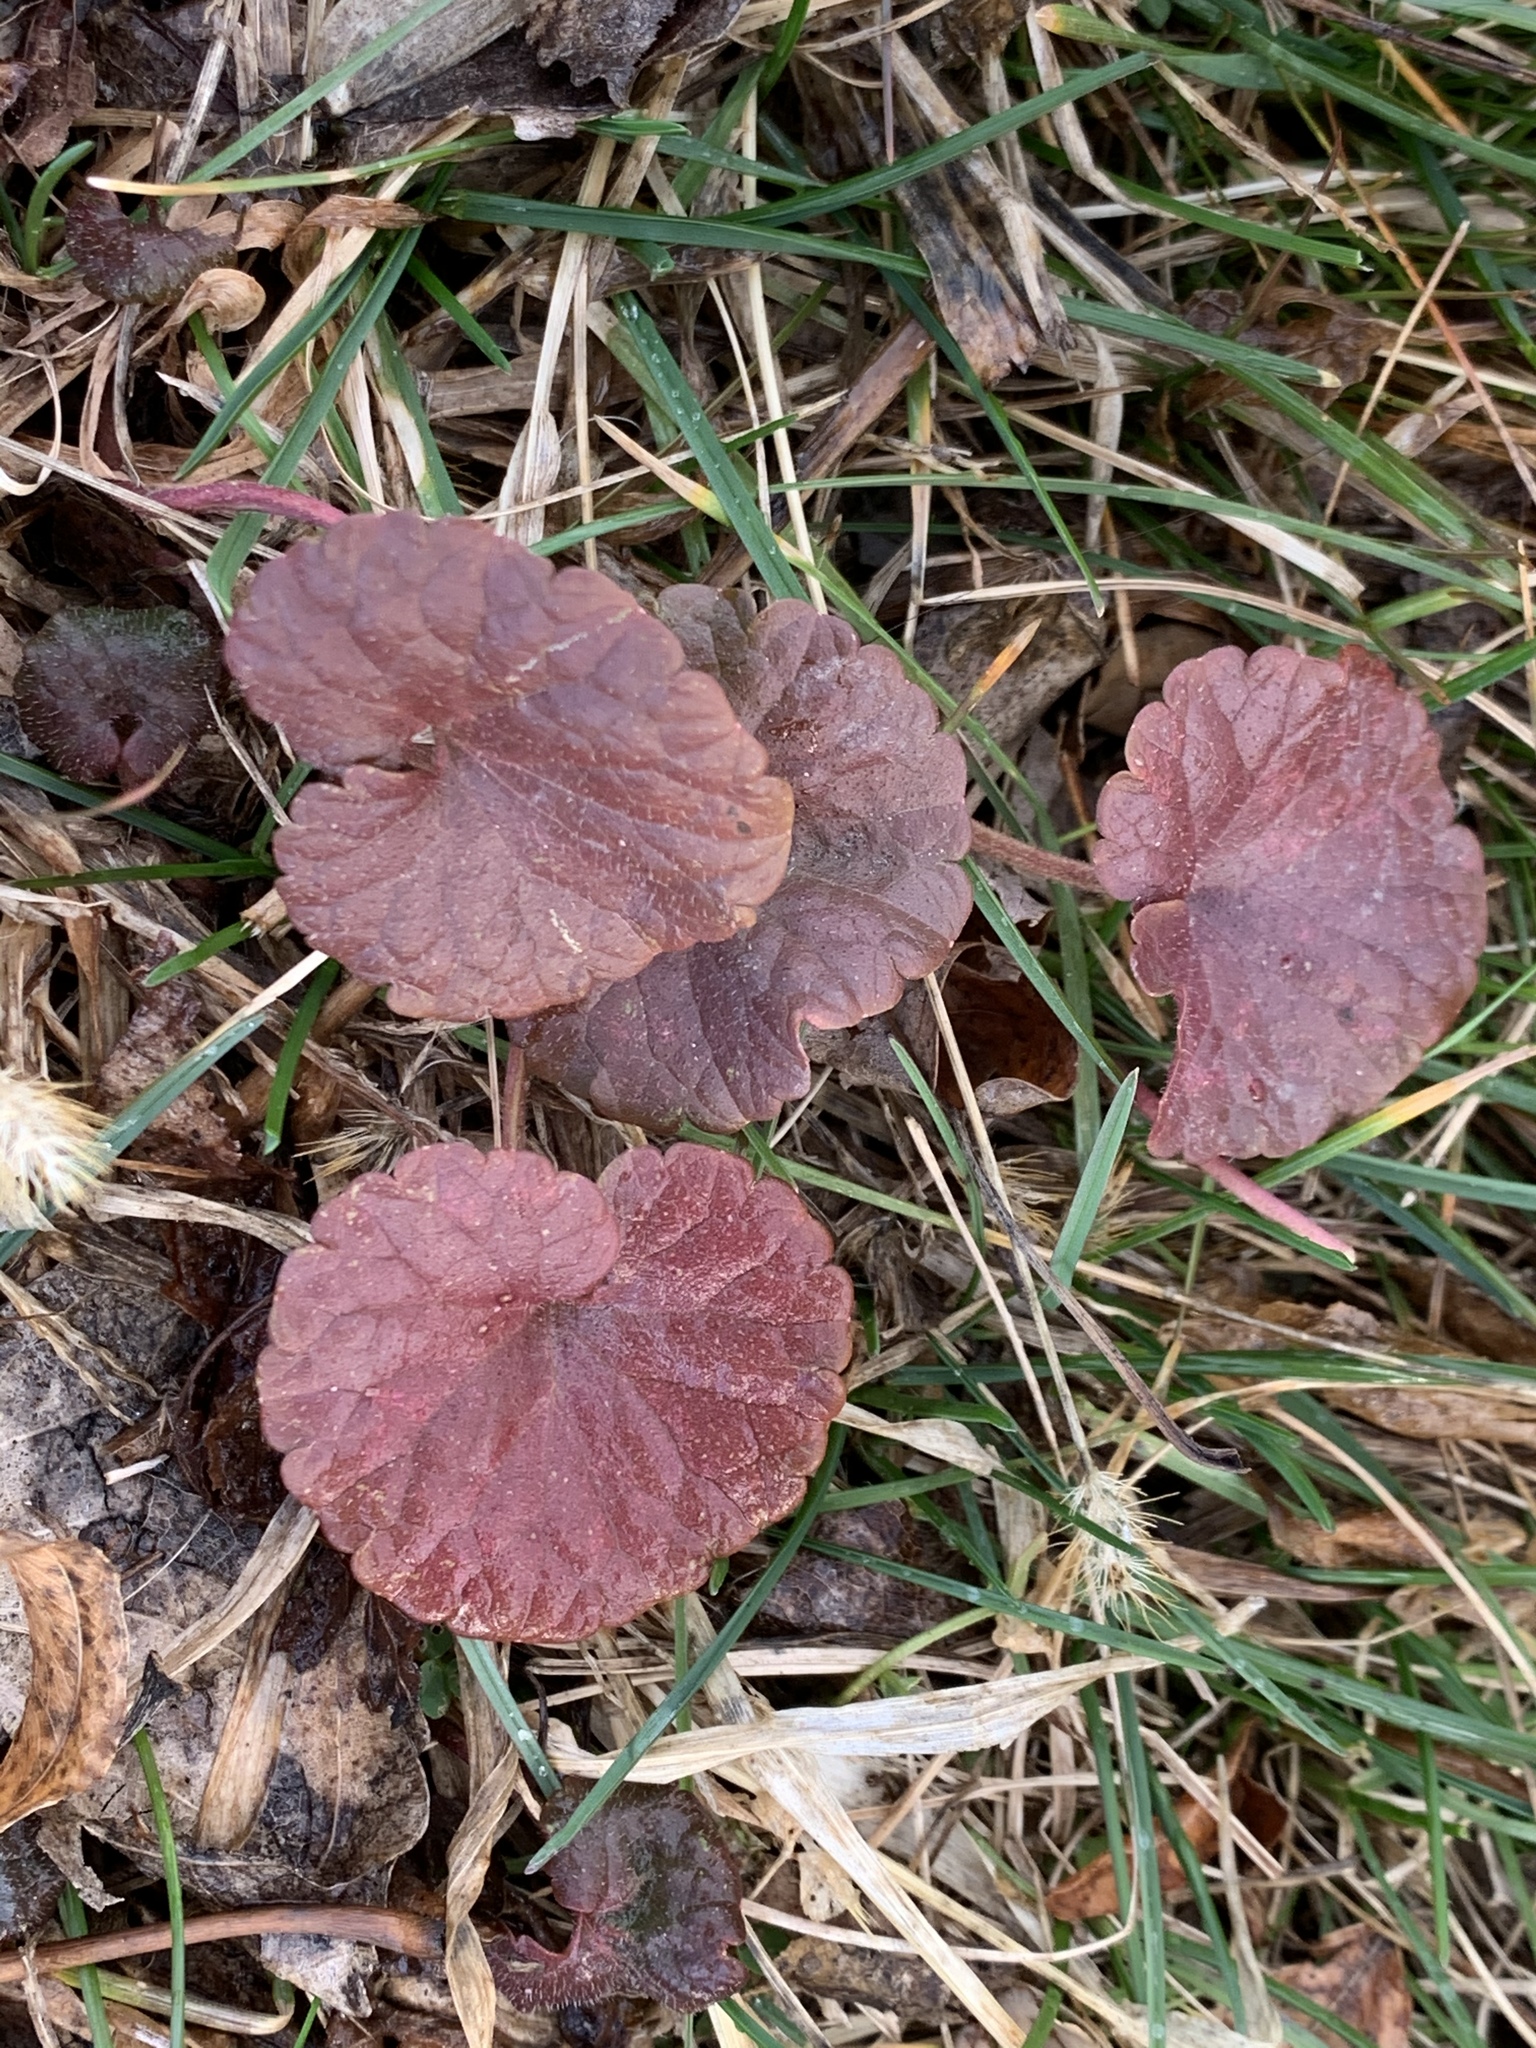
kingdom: Plantae
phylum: Tracheophyta
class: Magnoliopsida
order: Lamiales
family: Lamiaceae
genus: Glechoma
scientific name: Glechoma hederacea
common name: Ground ivy
